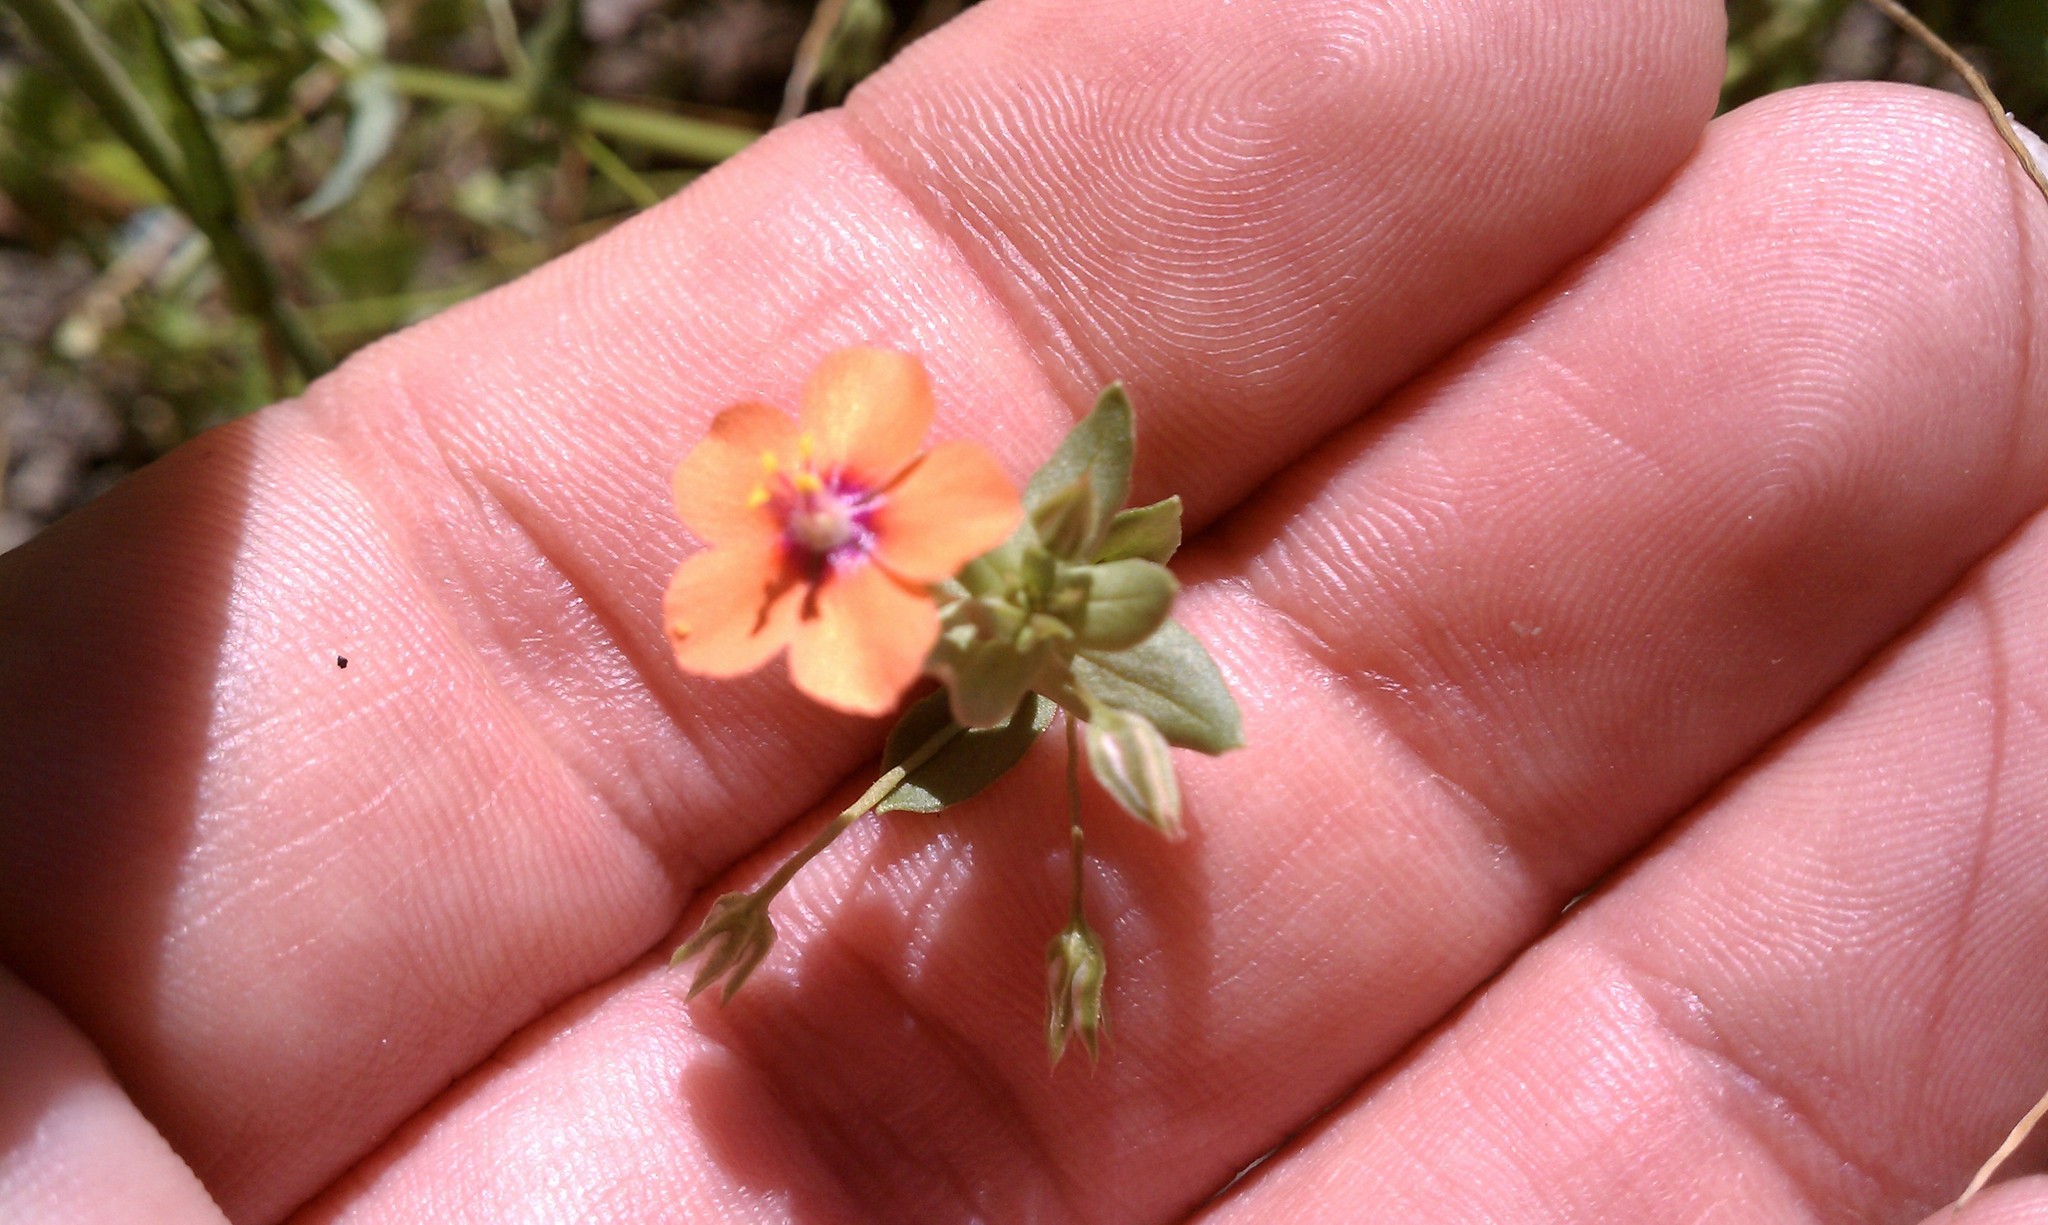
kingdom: Plantae
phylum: Tracheophyta
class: Magnoliopsida
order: Ericales
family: Primulaceae
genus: Lysimachia
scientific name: Lysimachia arvensis
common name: Scarlet pimpernel
